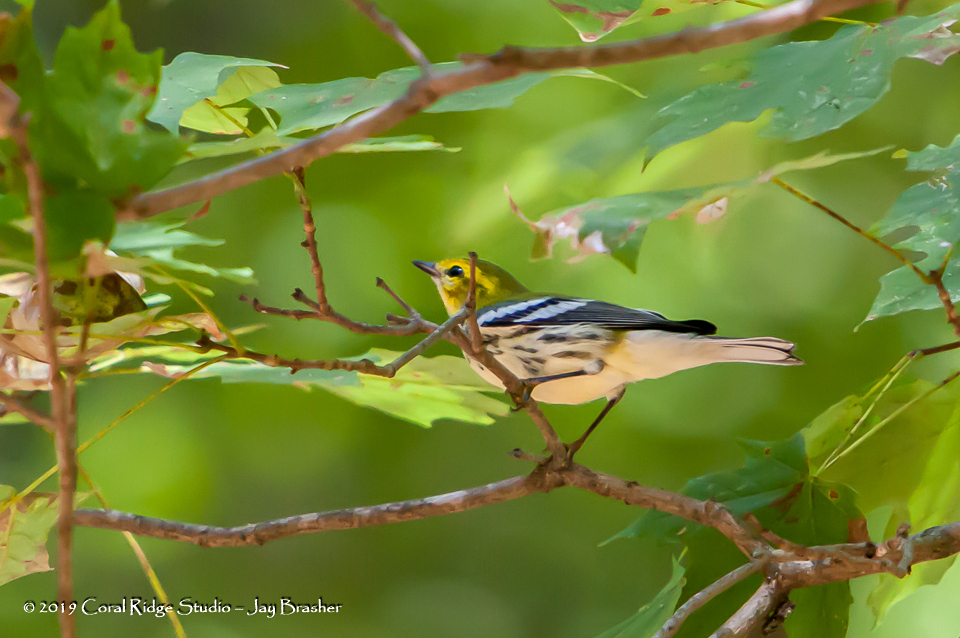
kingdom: Animalia
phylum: Chordata
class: Aves
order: Passeriformes
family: Parulidae
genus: Setophaga
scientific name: Setophaga virens
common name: Black-throated green warbler
